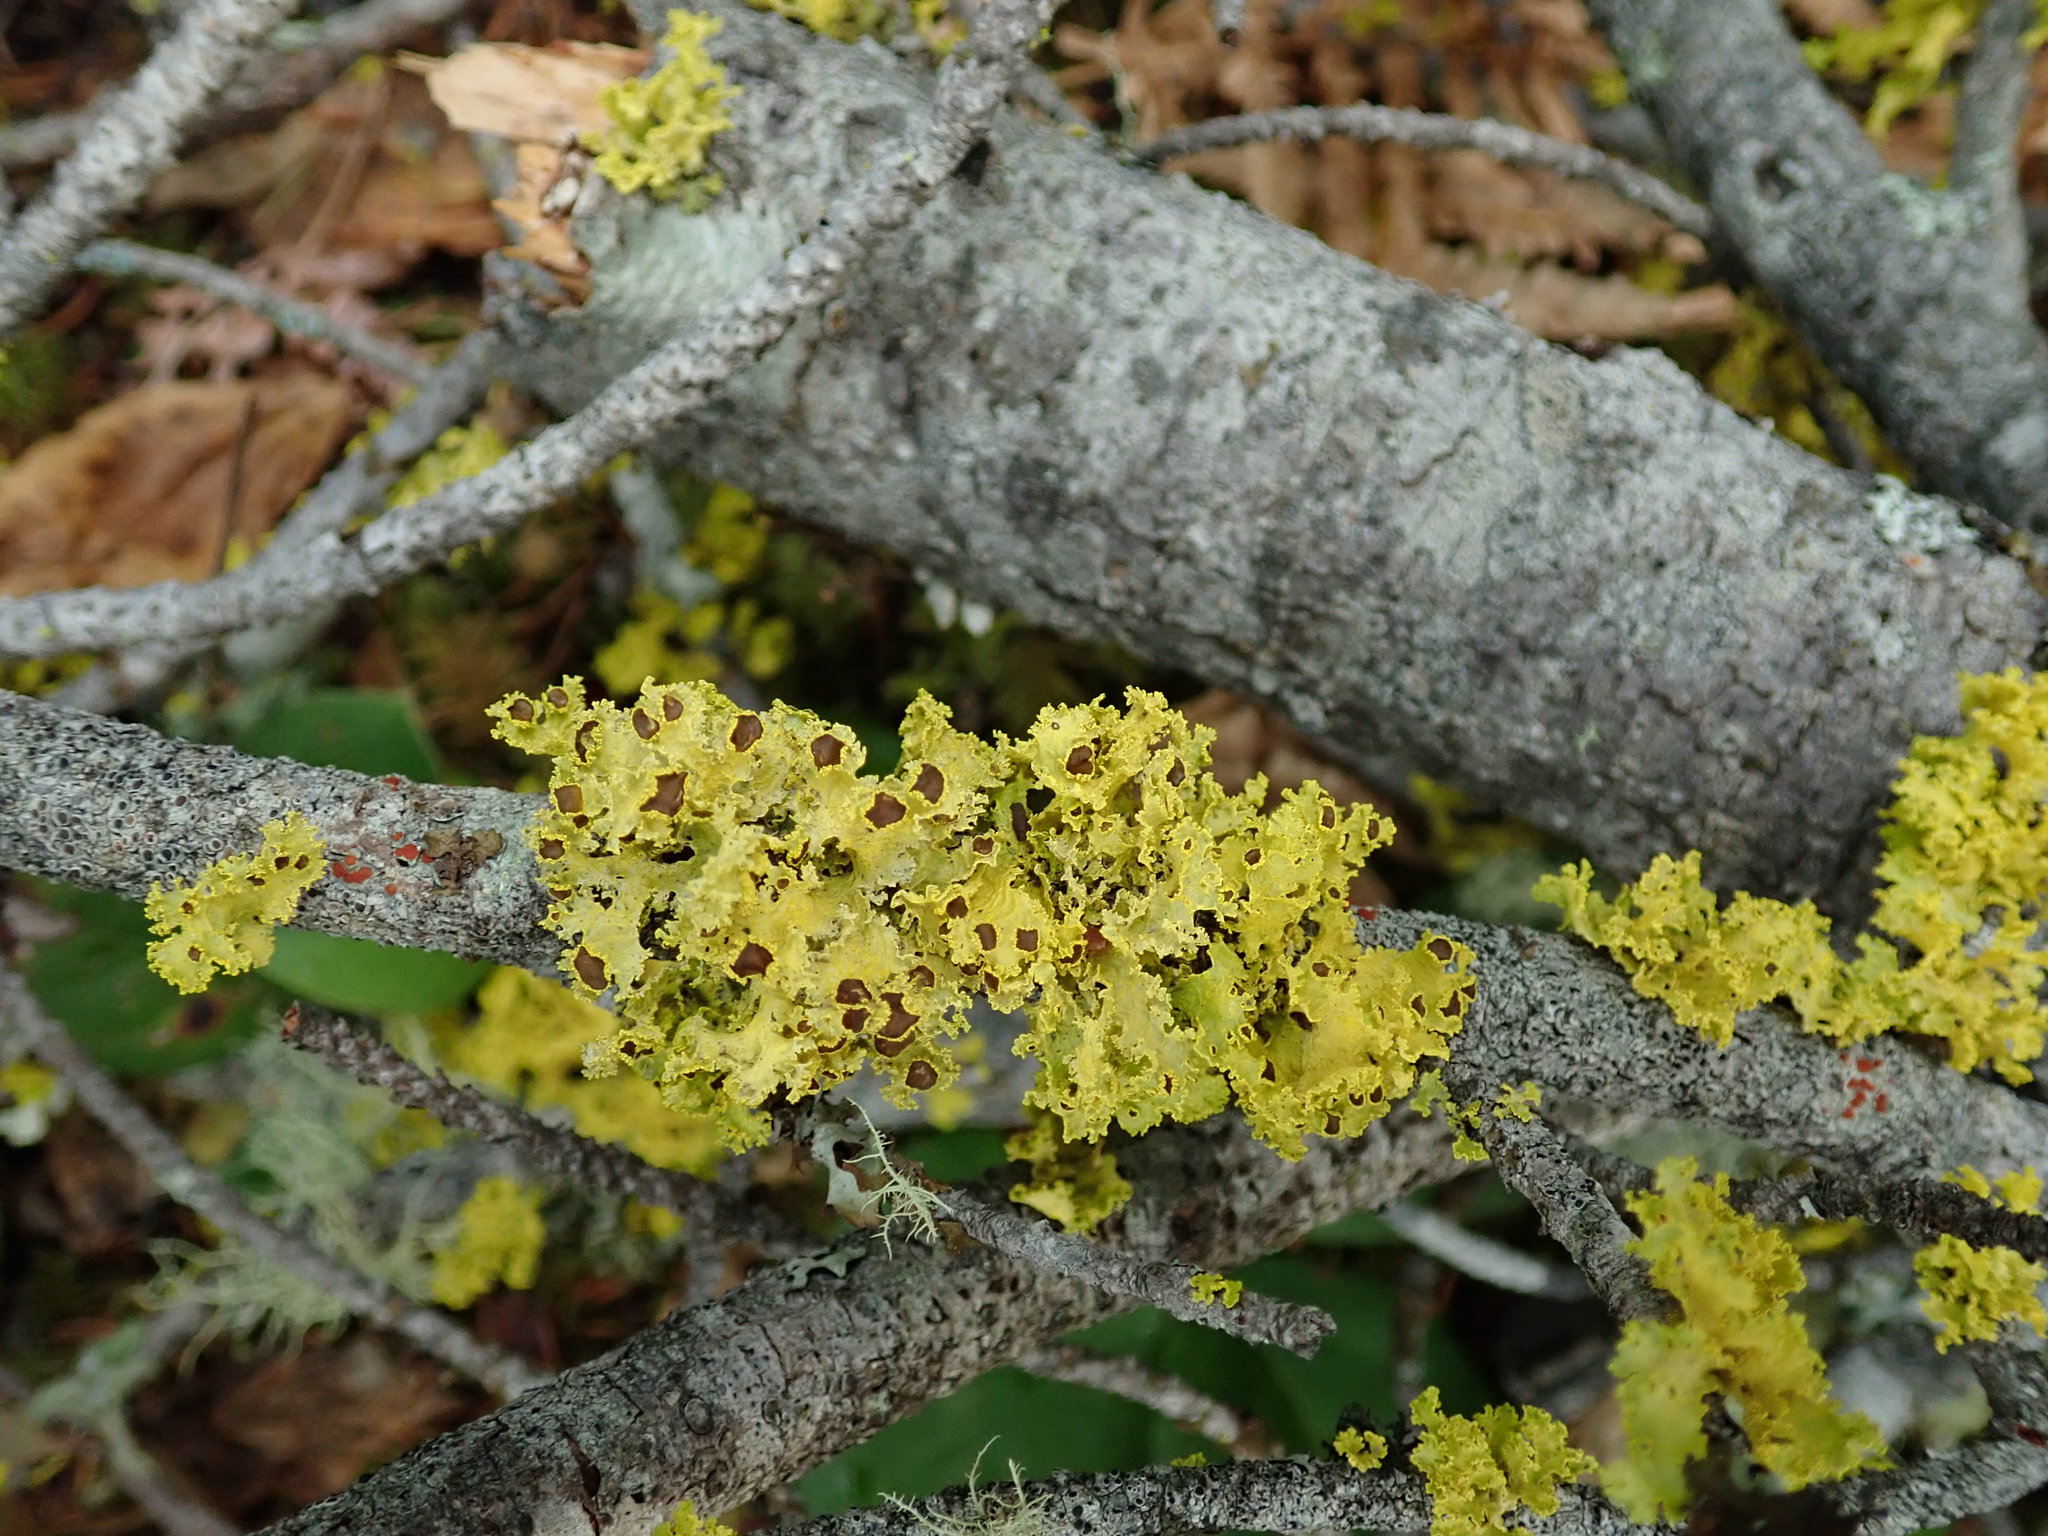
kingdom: Fungi
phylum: Ascomycota
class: Lecanoromycetes
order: Lecanorales
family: Parmeliaceae
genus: Vulpicida
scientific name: Vulpicida canadensis
